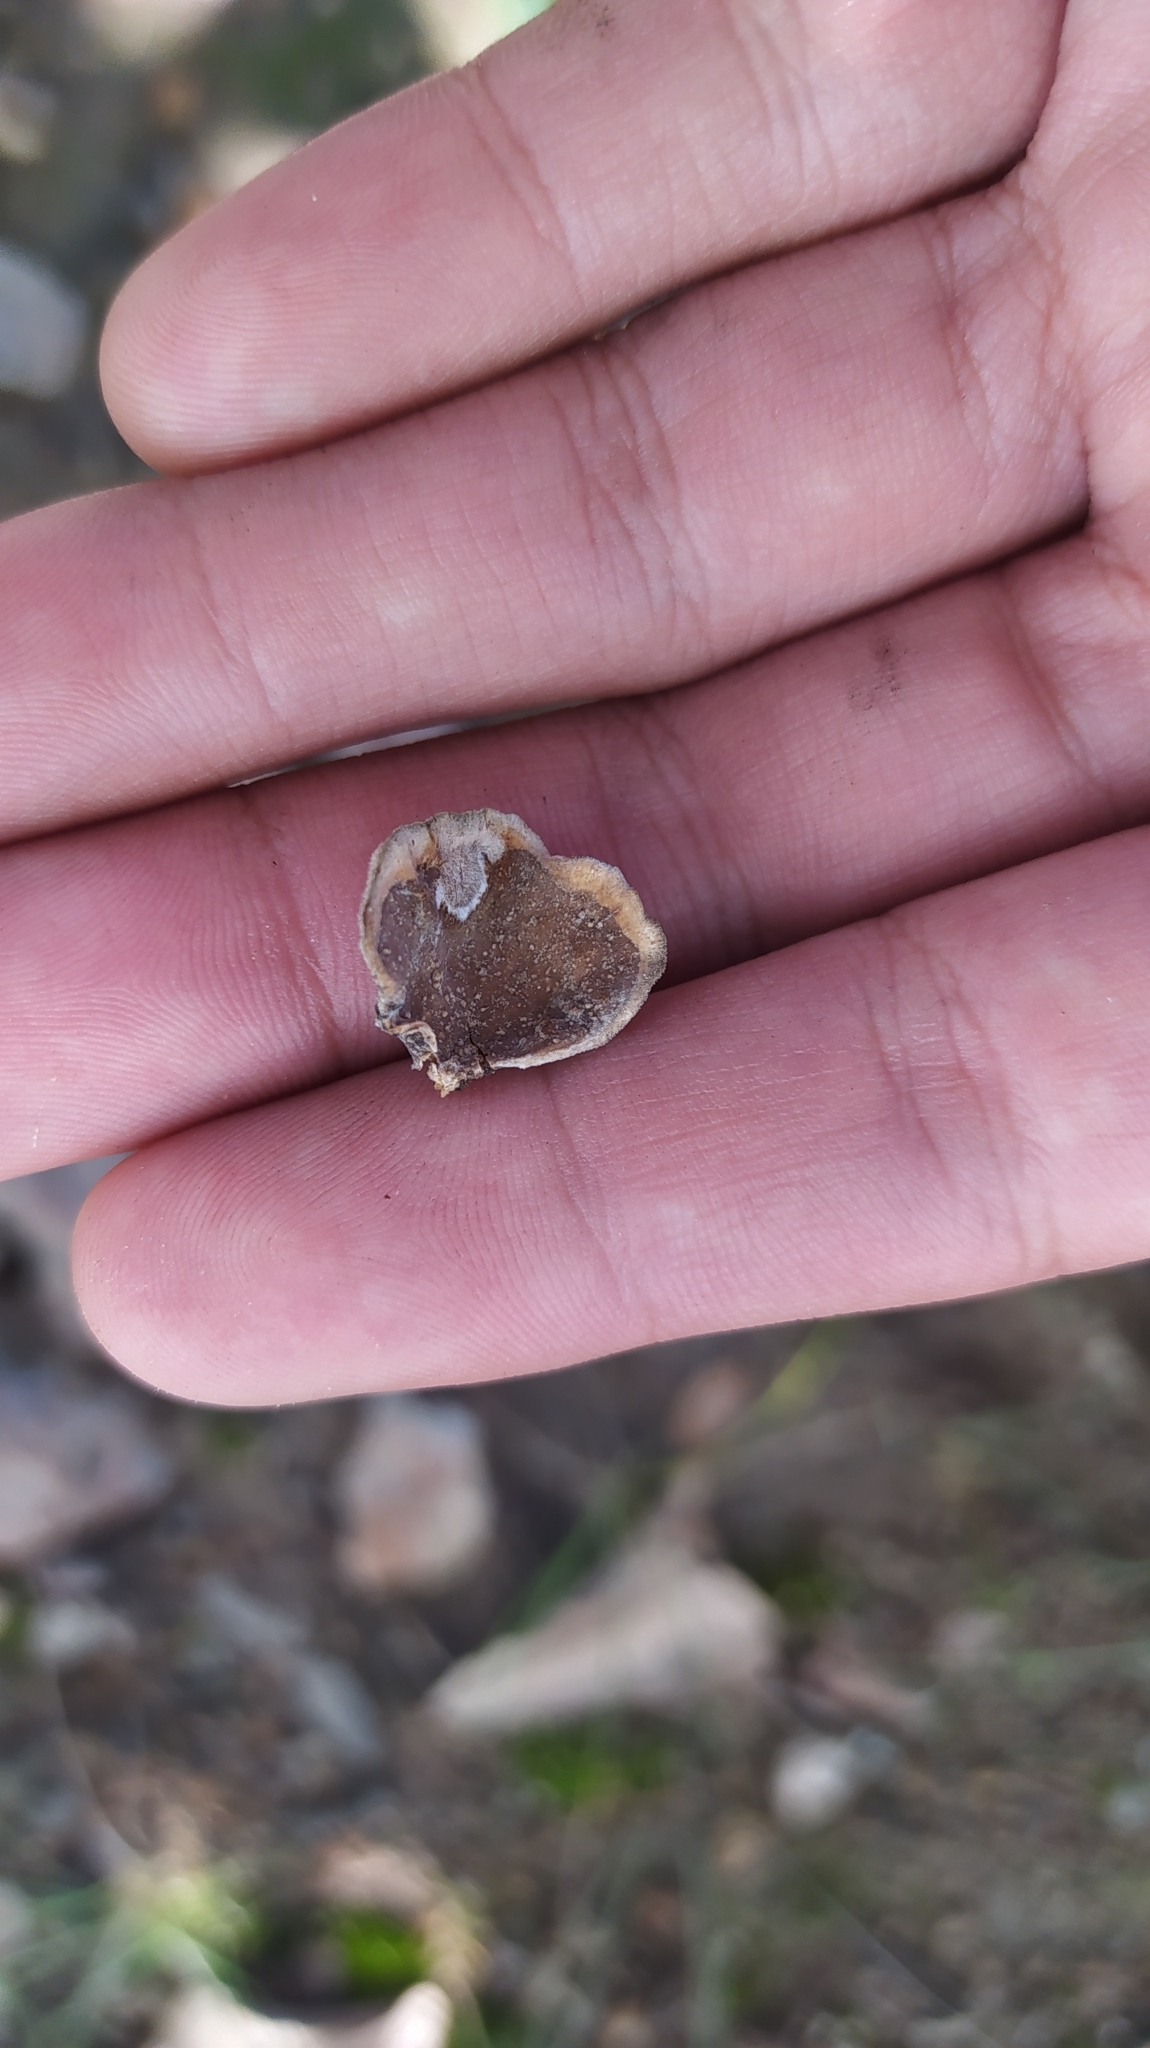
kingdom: Fungi
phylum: Basidiomycota
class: Agaricomycetes
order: Polyporales
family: Polyporaceae
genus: Trametes
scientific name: Trametes versicolor
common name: Turkeytail
